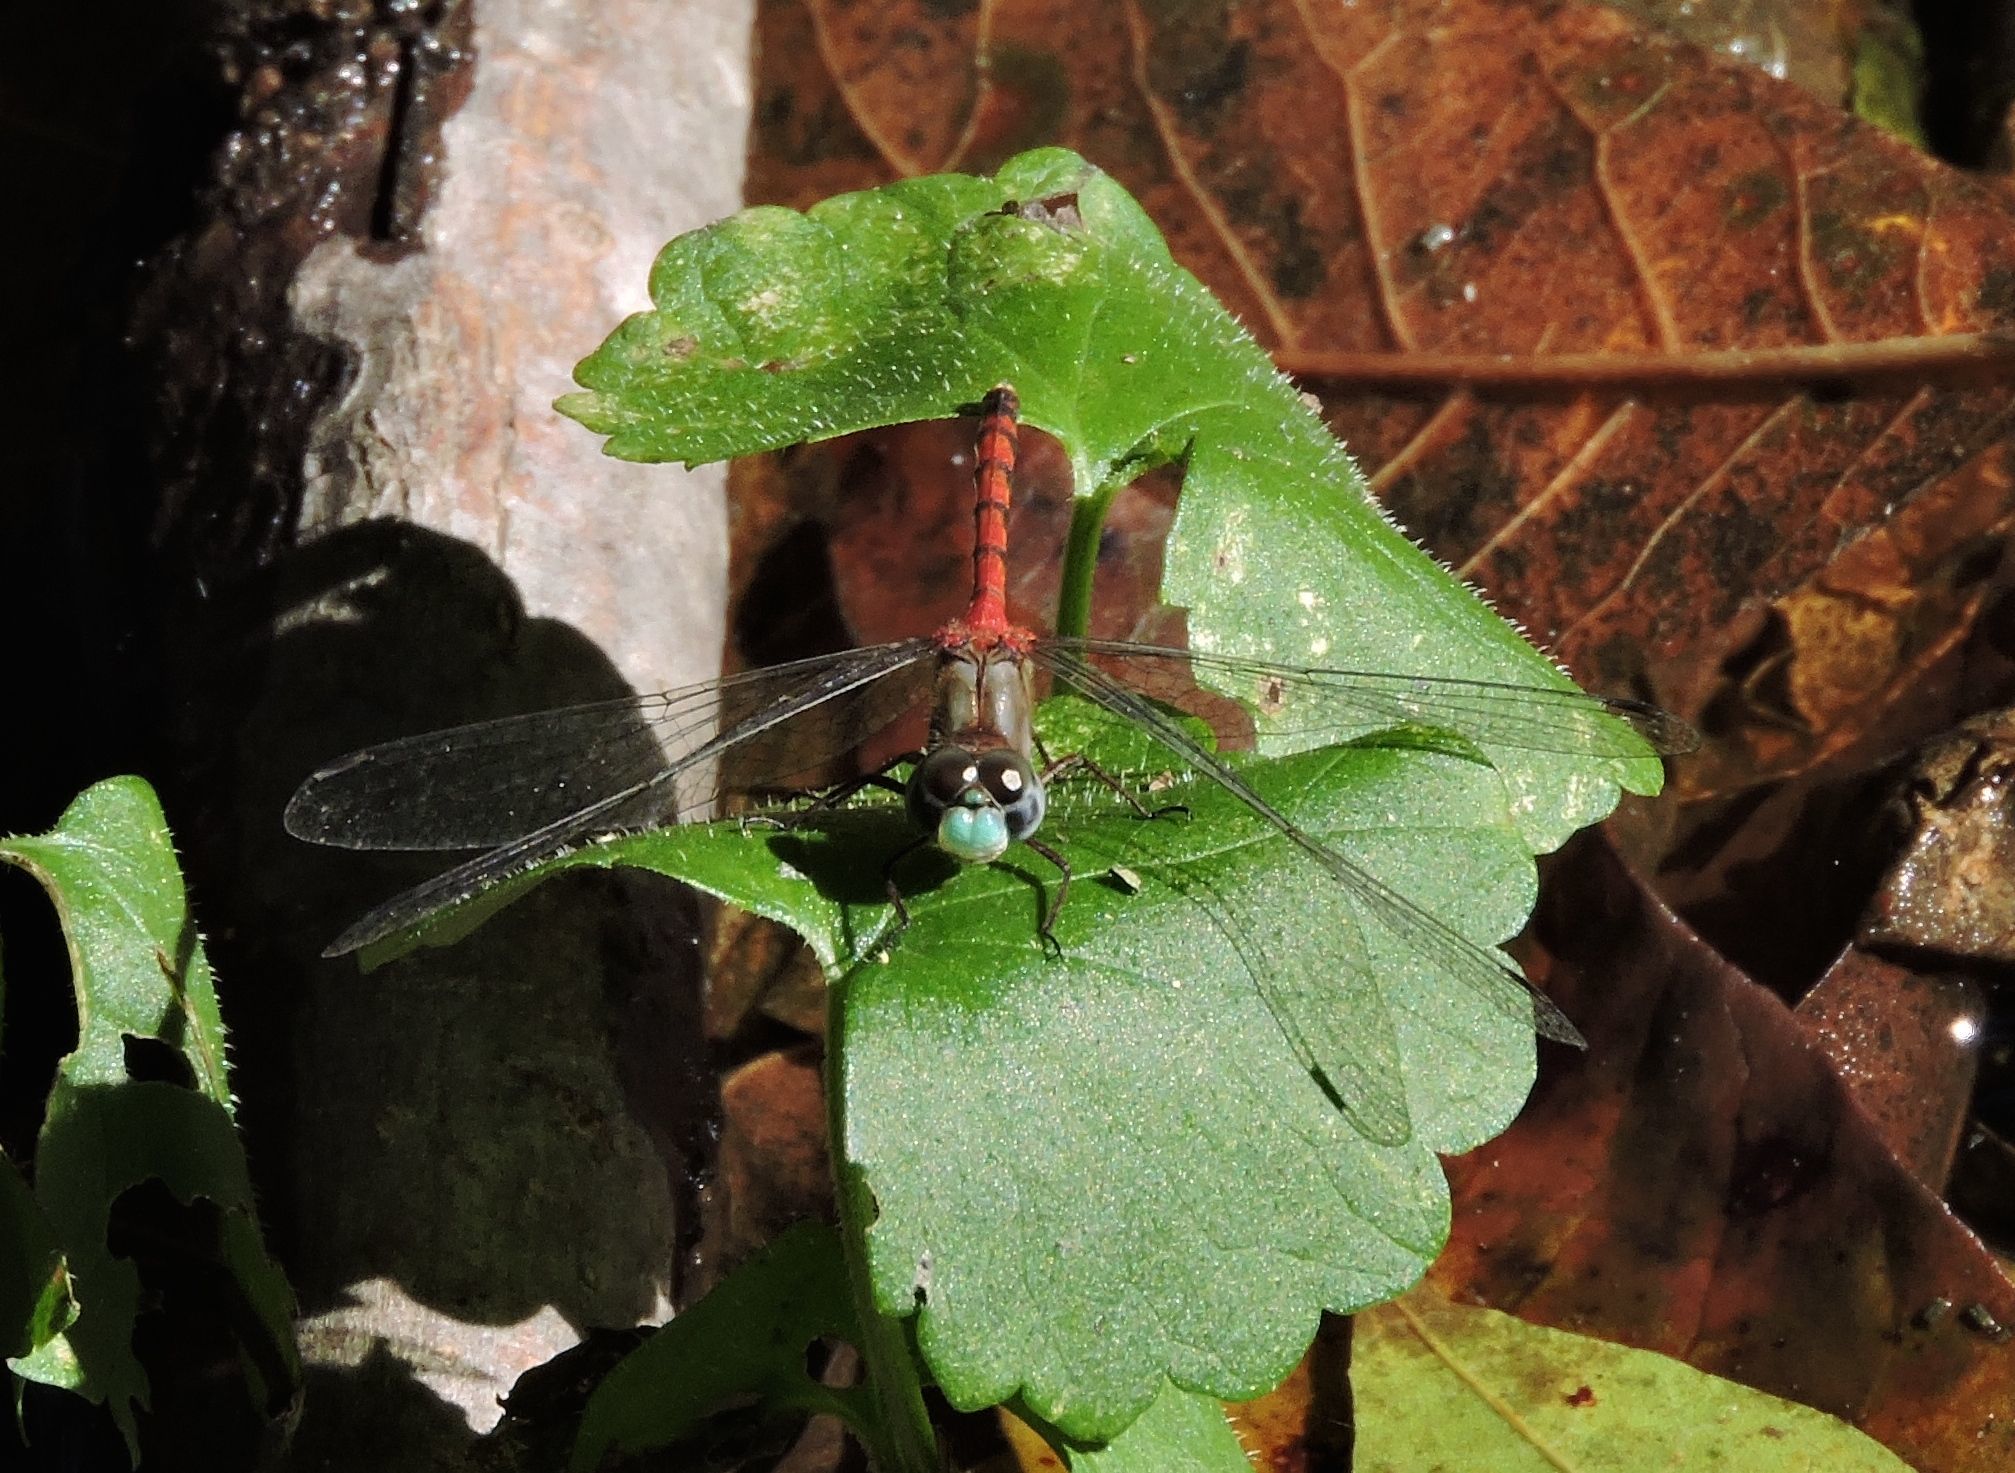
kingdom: Animalia
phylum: Arthropoda
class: Insecta
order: Odonata
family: Libellulidae
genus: Sympetrum
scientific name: Sympetrum ambiguum
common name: Blue-faced meadowhawk
